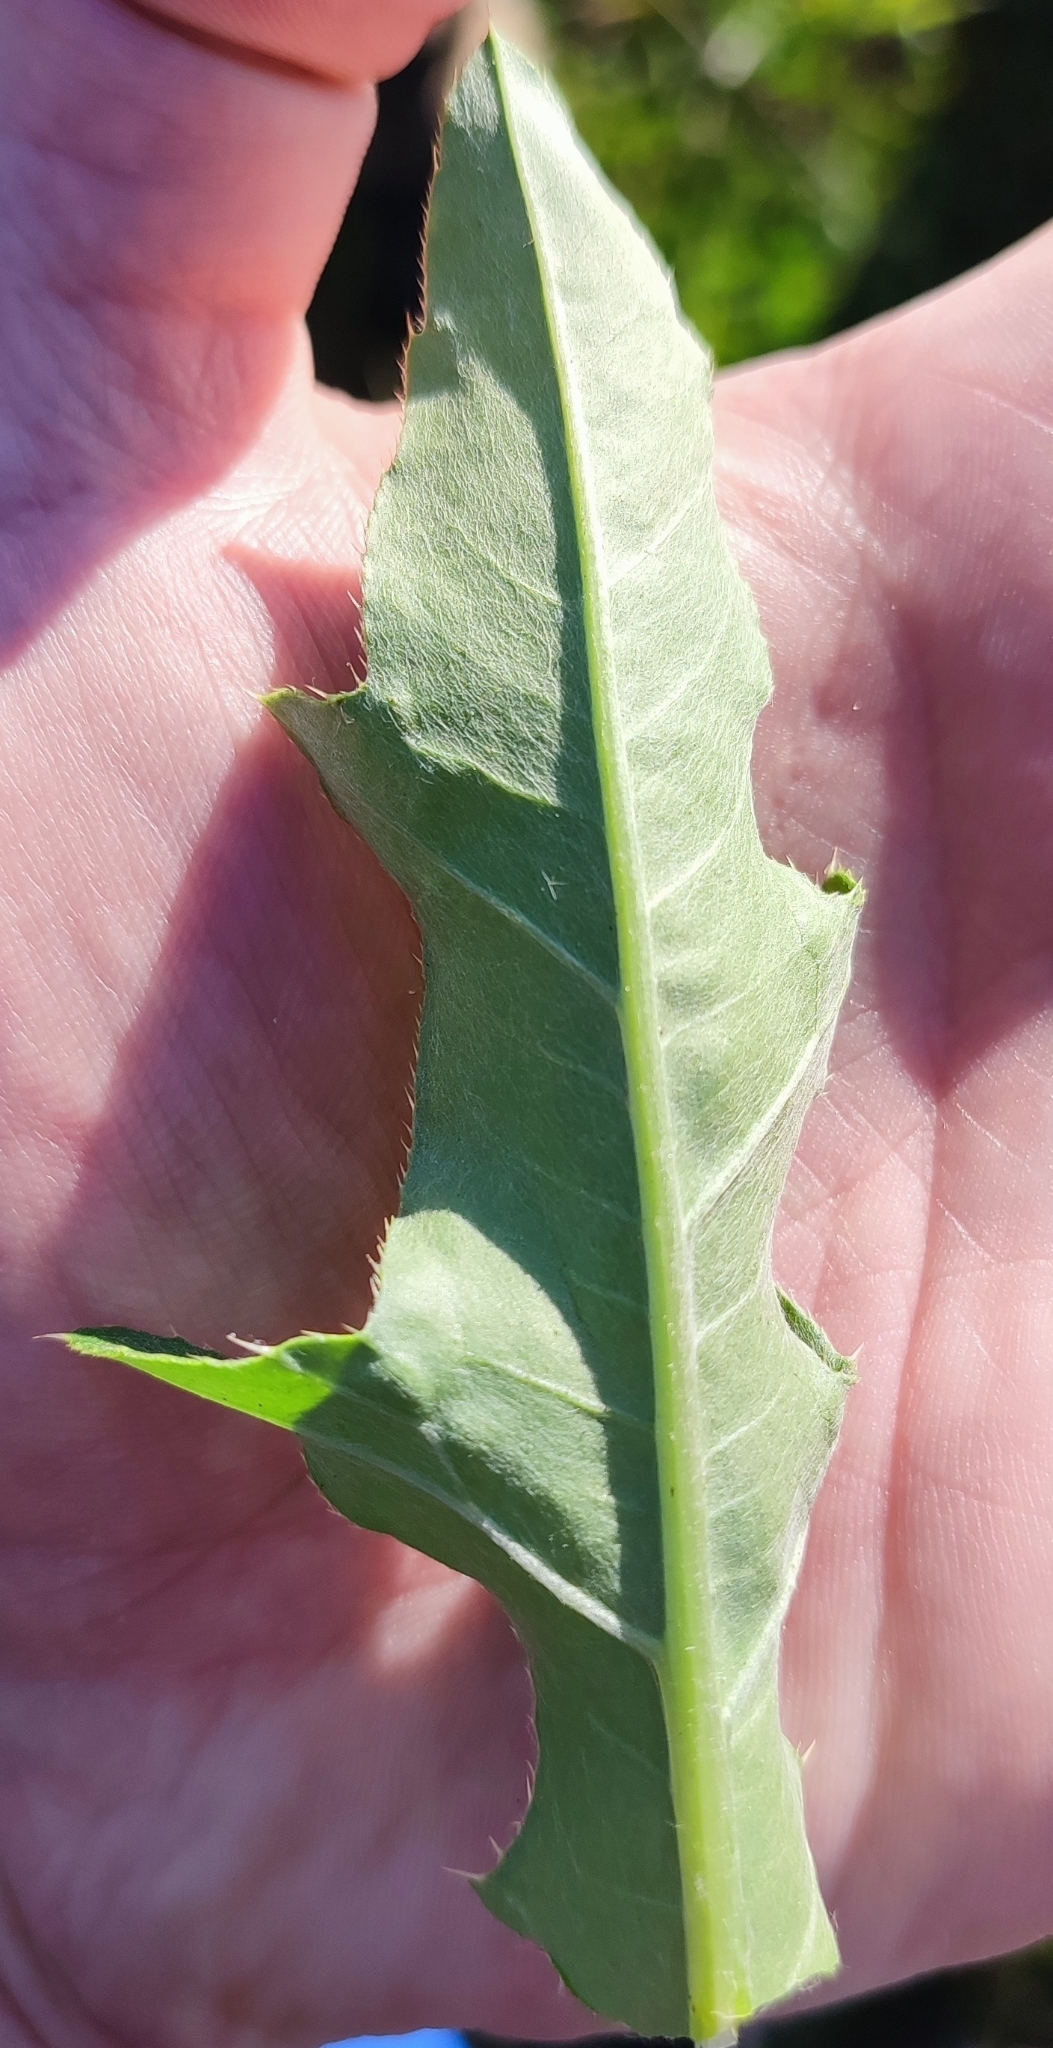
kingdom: Plantae
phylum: Tracheophyta
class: Magnoliopsida
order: Asterales
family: Asteraceae
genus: Cirsium
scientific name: Cirsium arvense
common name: Creeping thistle
